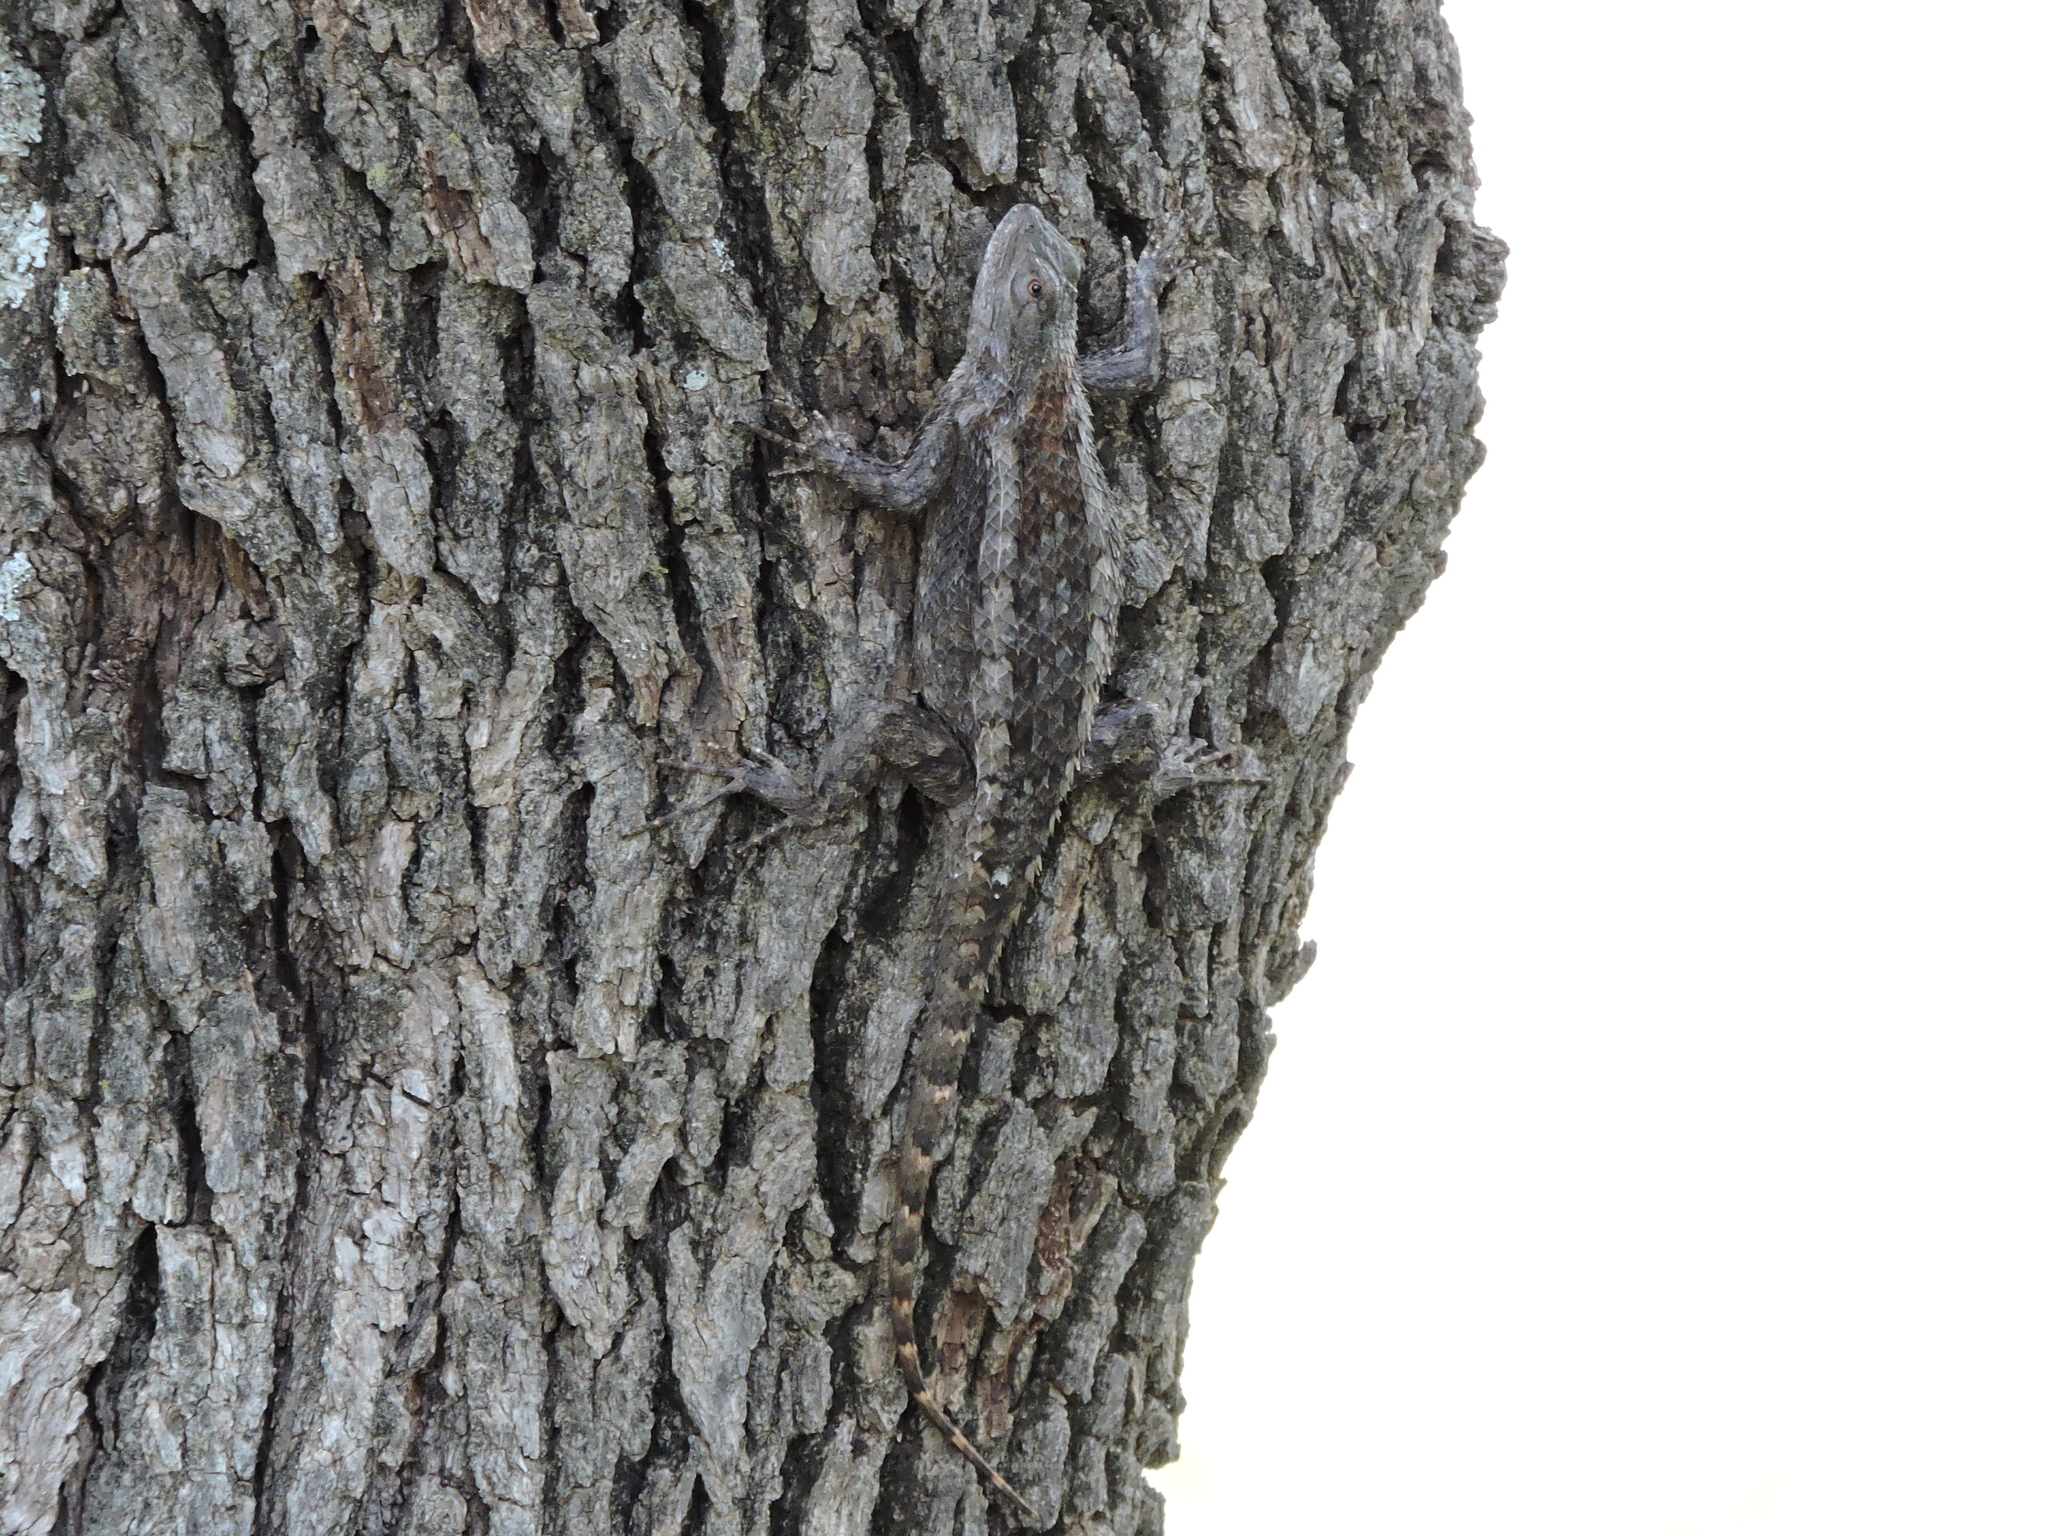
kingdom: Animalia
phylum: Chordata
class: Squamata
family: Phrynosomatidae
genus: Sceloporus
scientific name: Sceloporus olivaceus
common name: Texas spiny lizard
